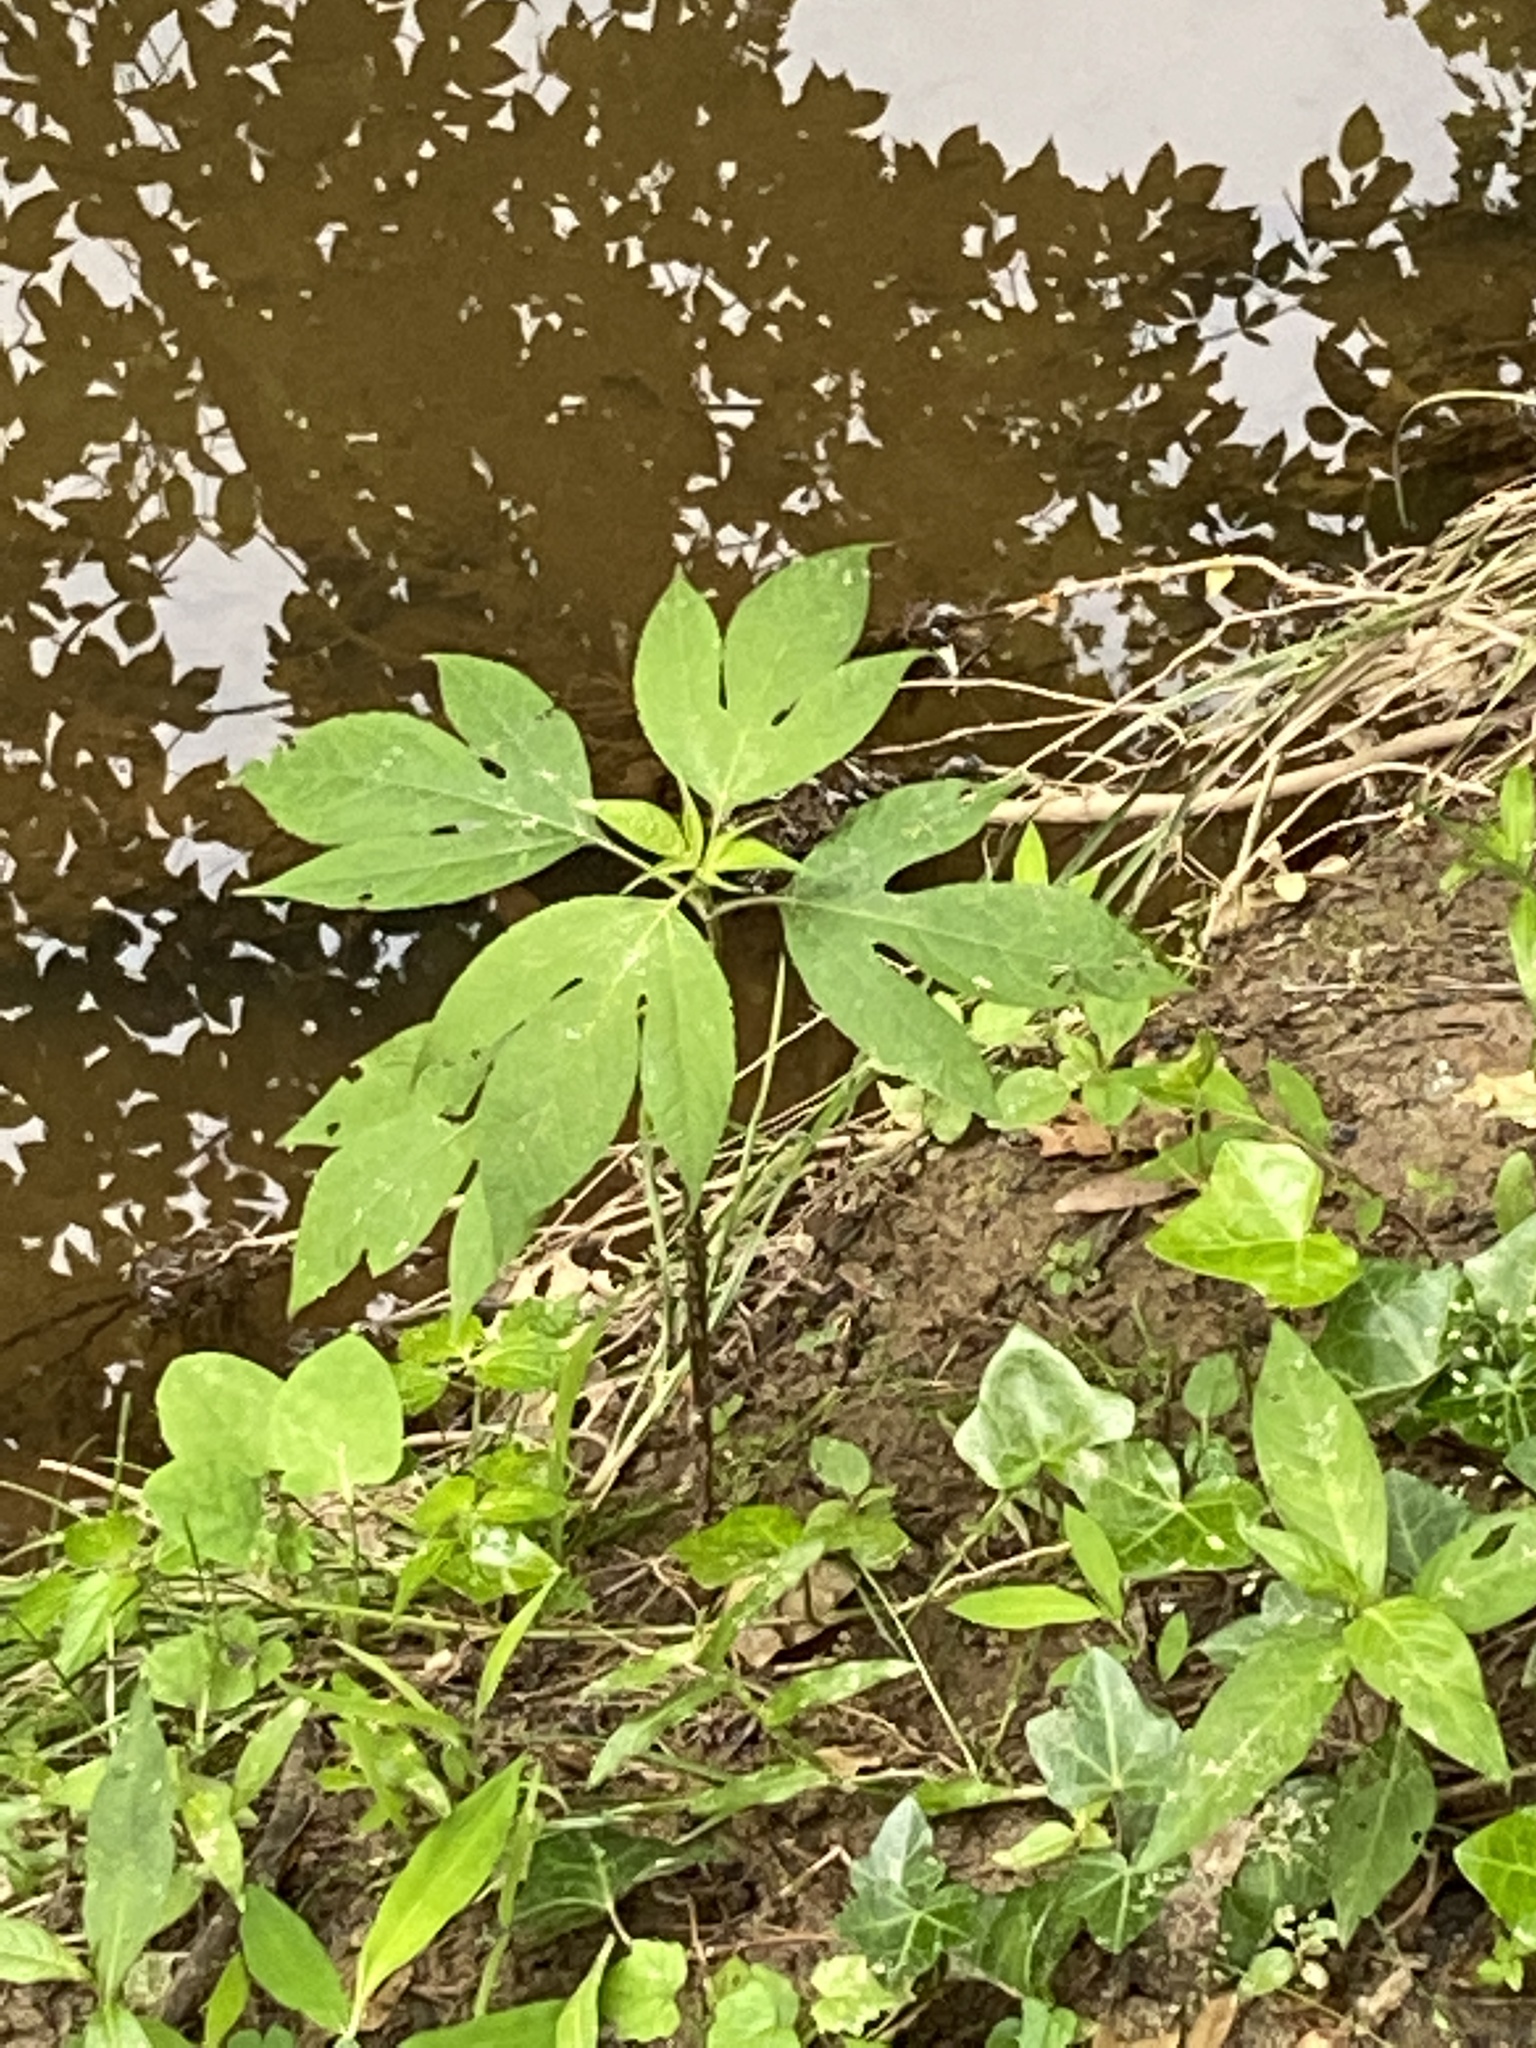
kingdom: Plantae
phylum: Tracheophyta
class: Magnoliopsida
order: Asterales
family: Asteraceae
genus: Ambrosia
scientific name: Ambrosia trifida
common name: Giant ragweed
